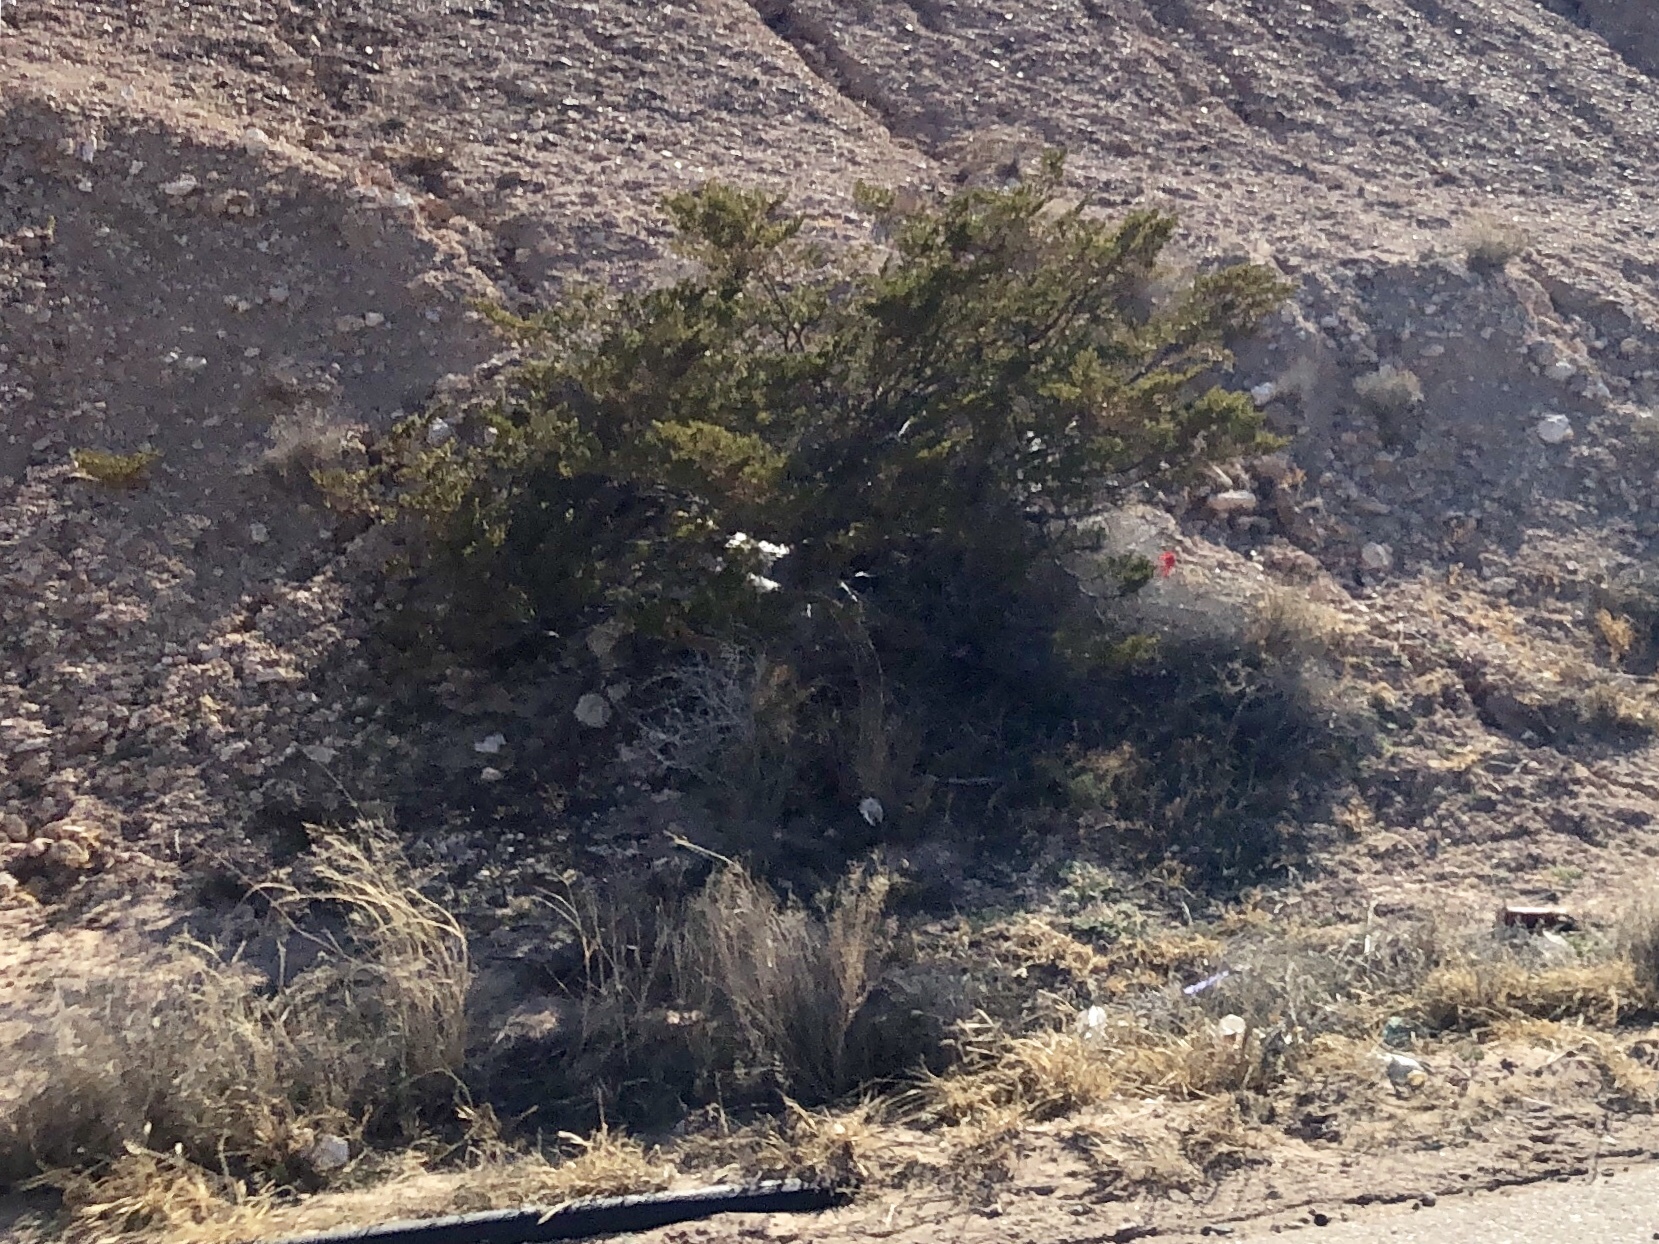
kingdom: Plantae
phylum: Tracheophyta
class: Magnoliopsida
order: Zygophyllales
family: Zygophyllaceae
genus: Larrea
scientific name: Larrea tridentata
